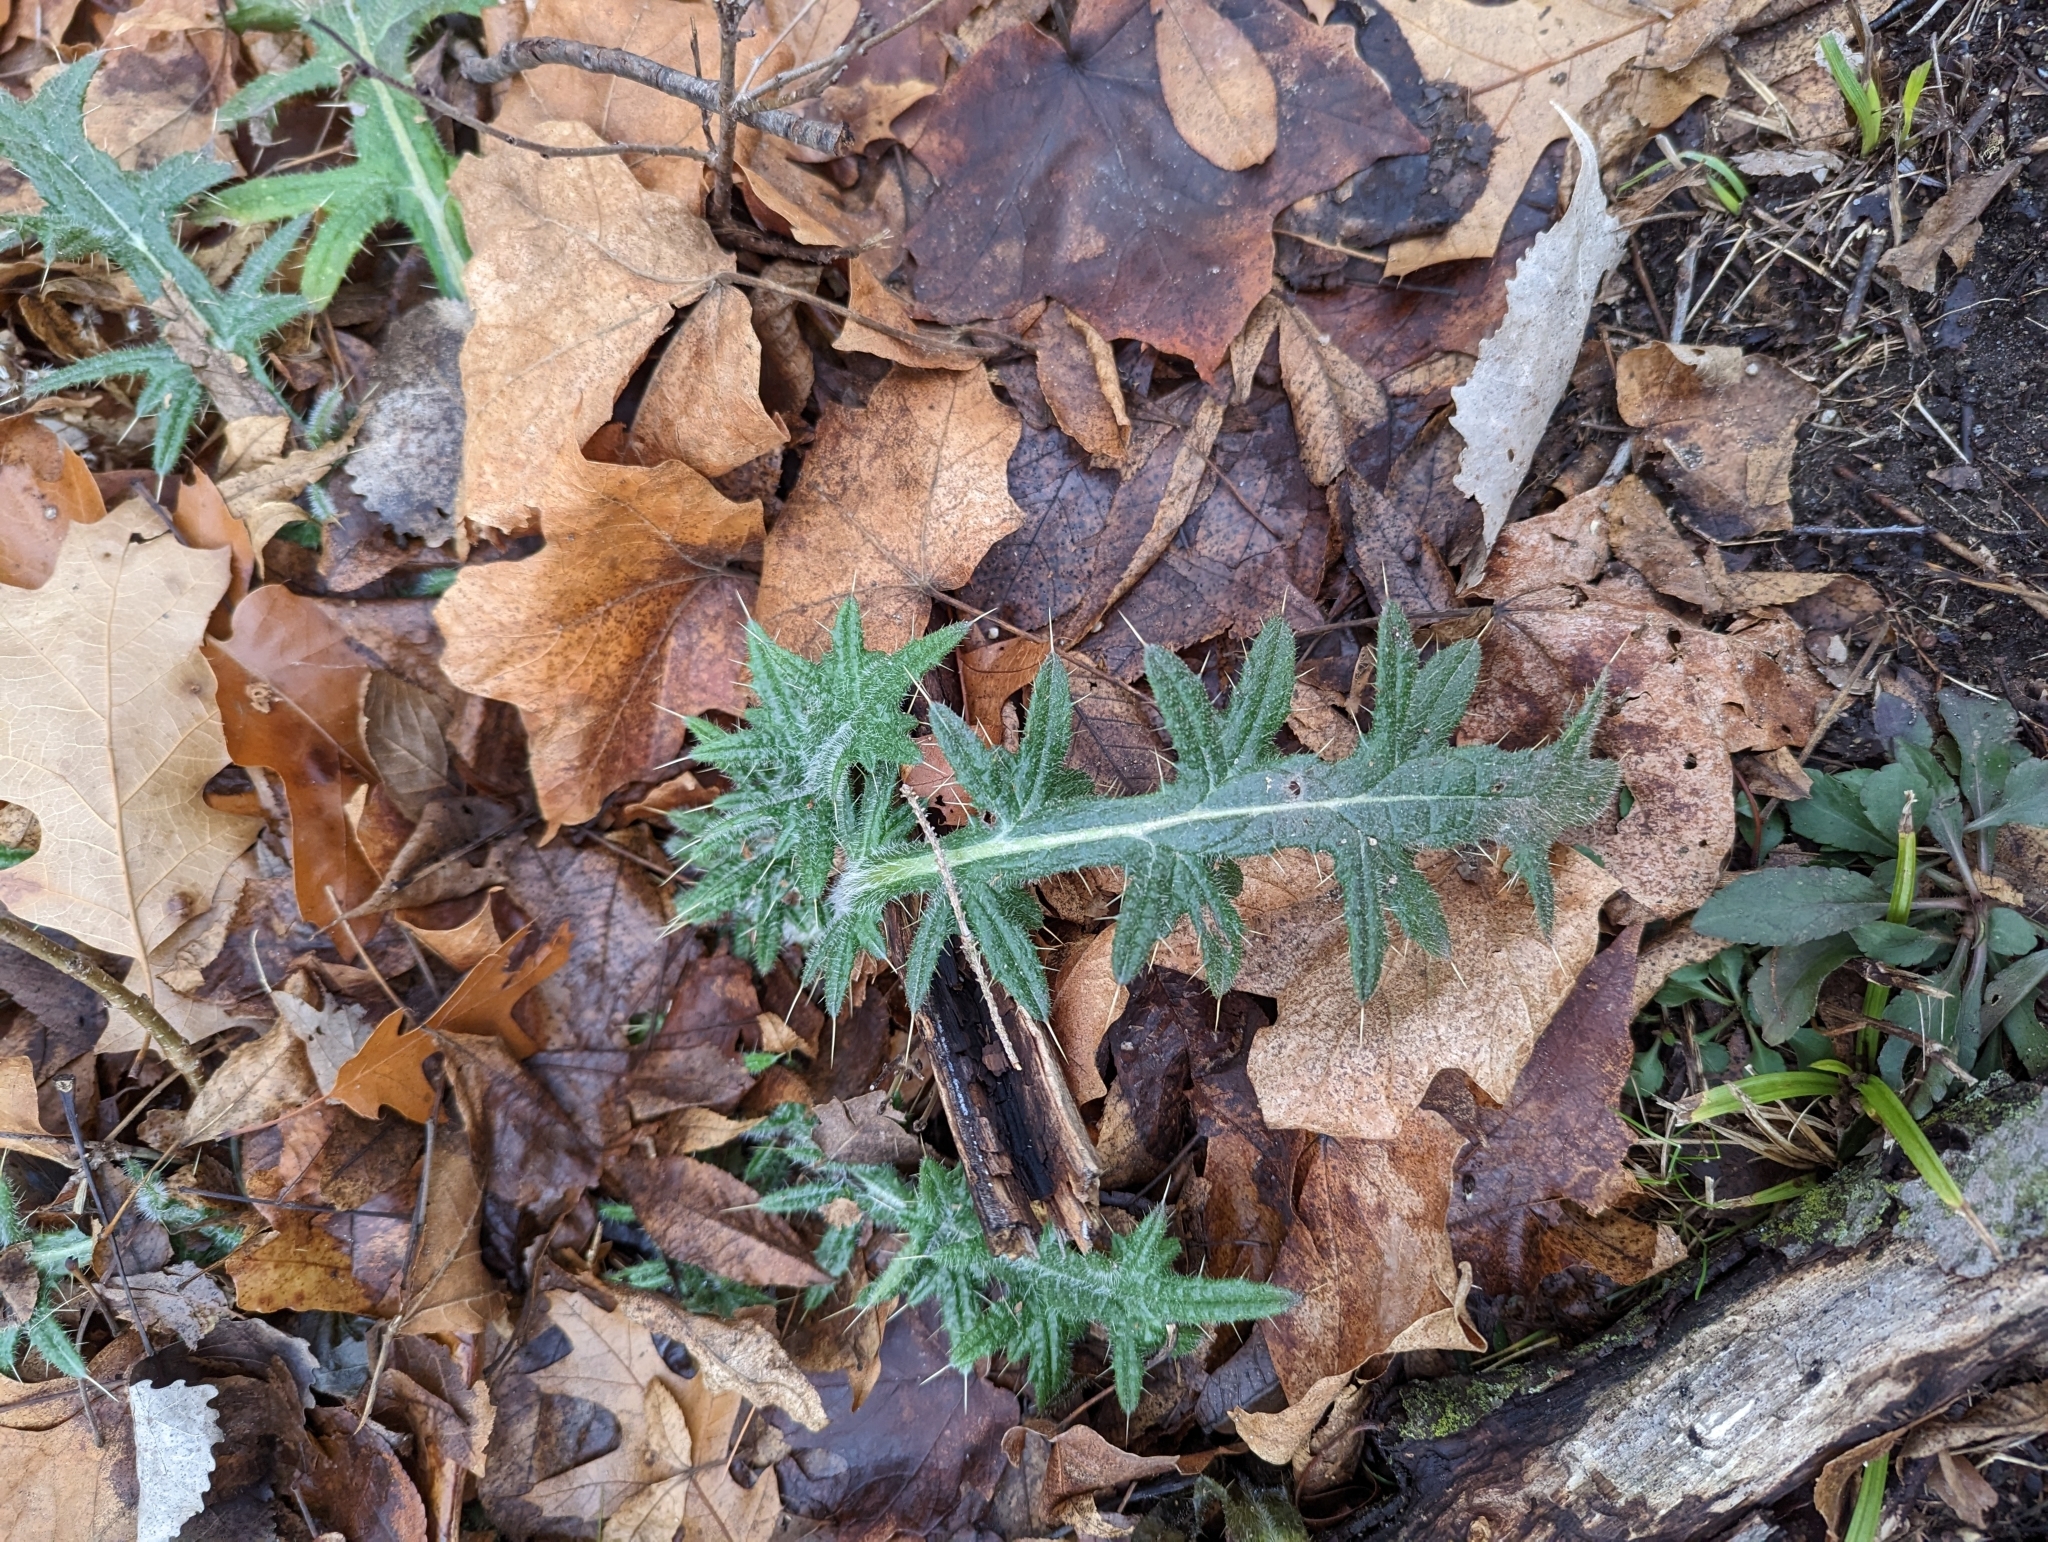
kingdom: Plantae
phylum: Tracheophyta
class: Magnoliopsida
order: Asterales
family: Asteraceae
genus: Cirsium
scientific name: Cirsium vulgare
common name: Bull thistle
